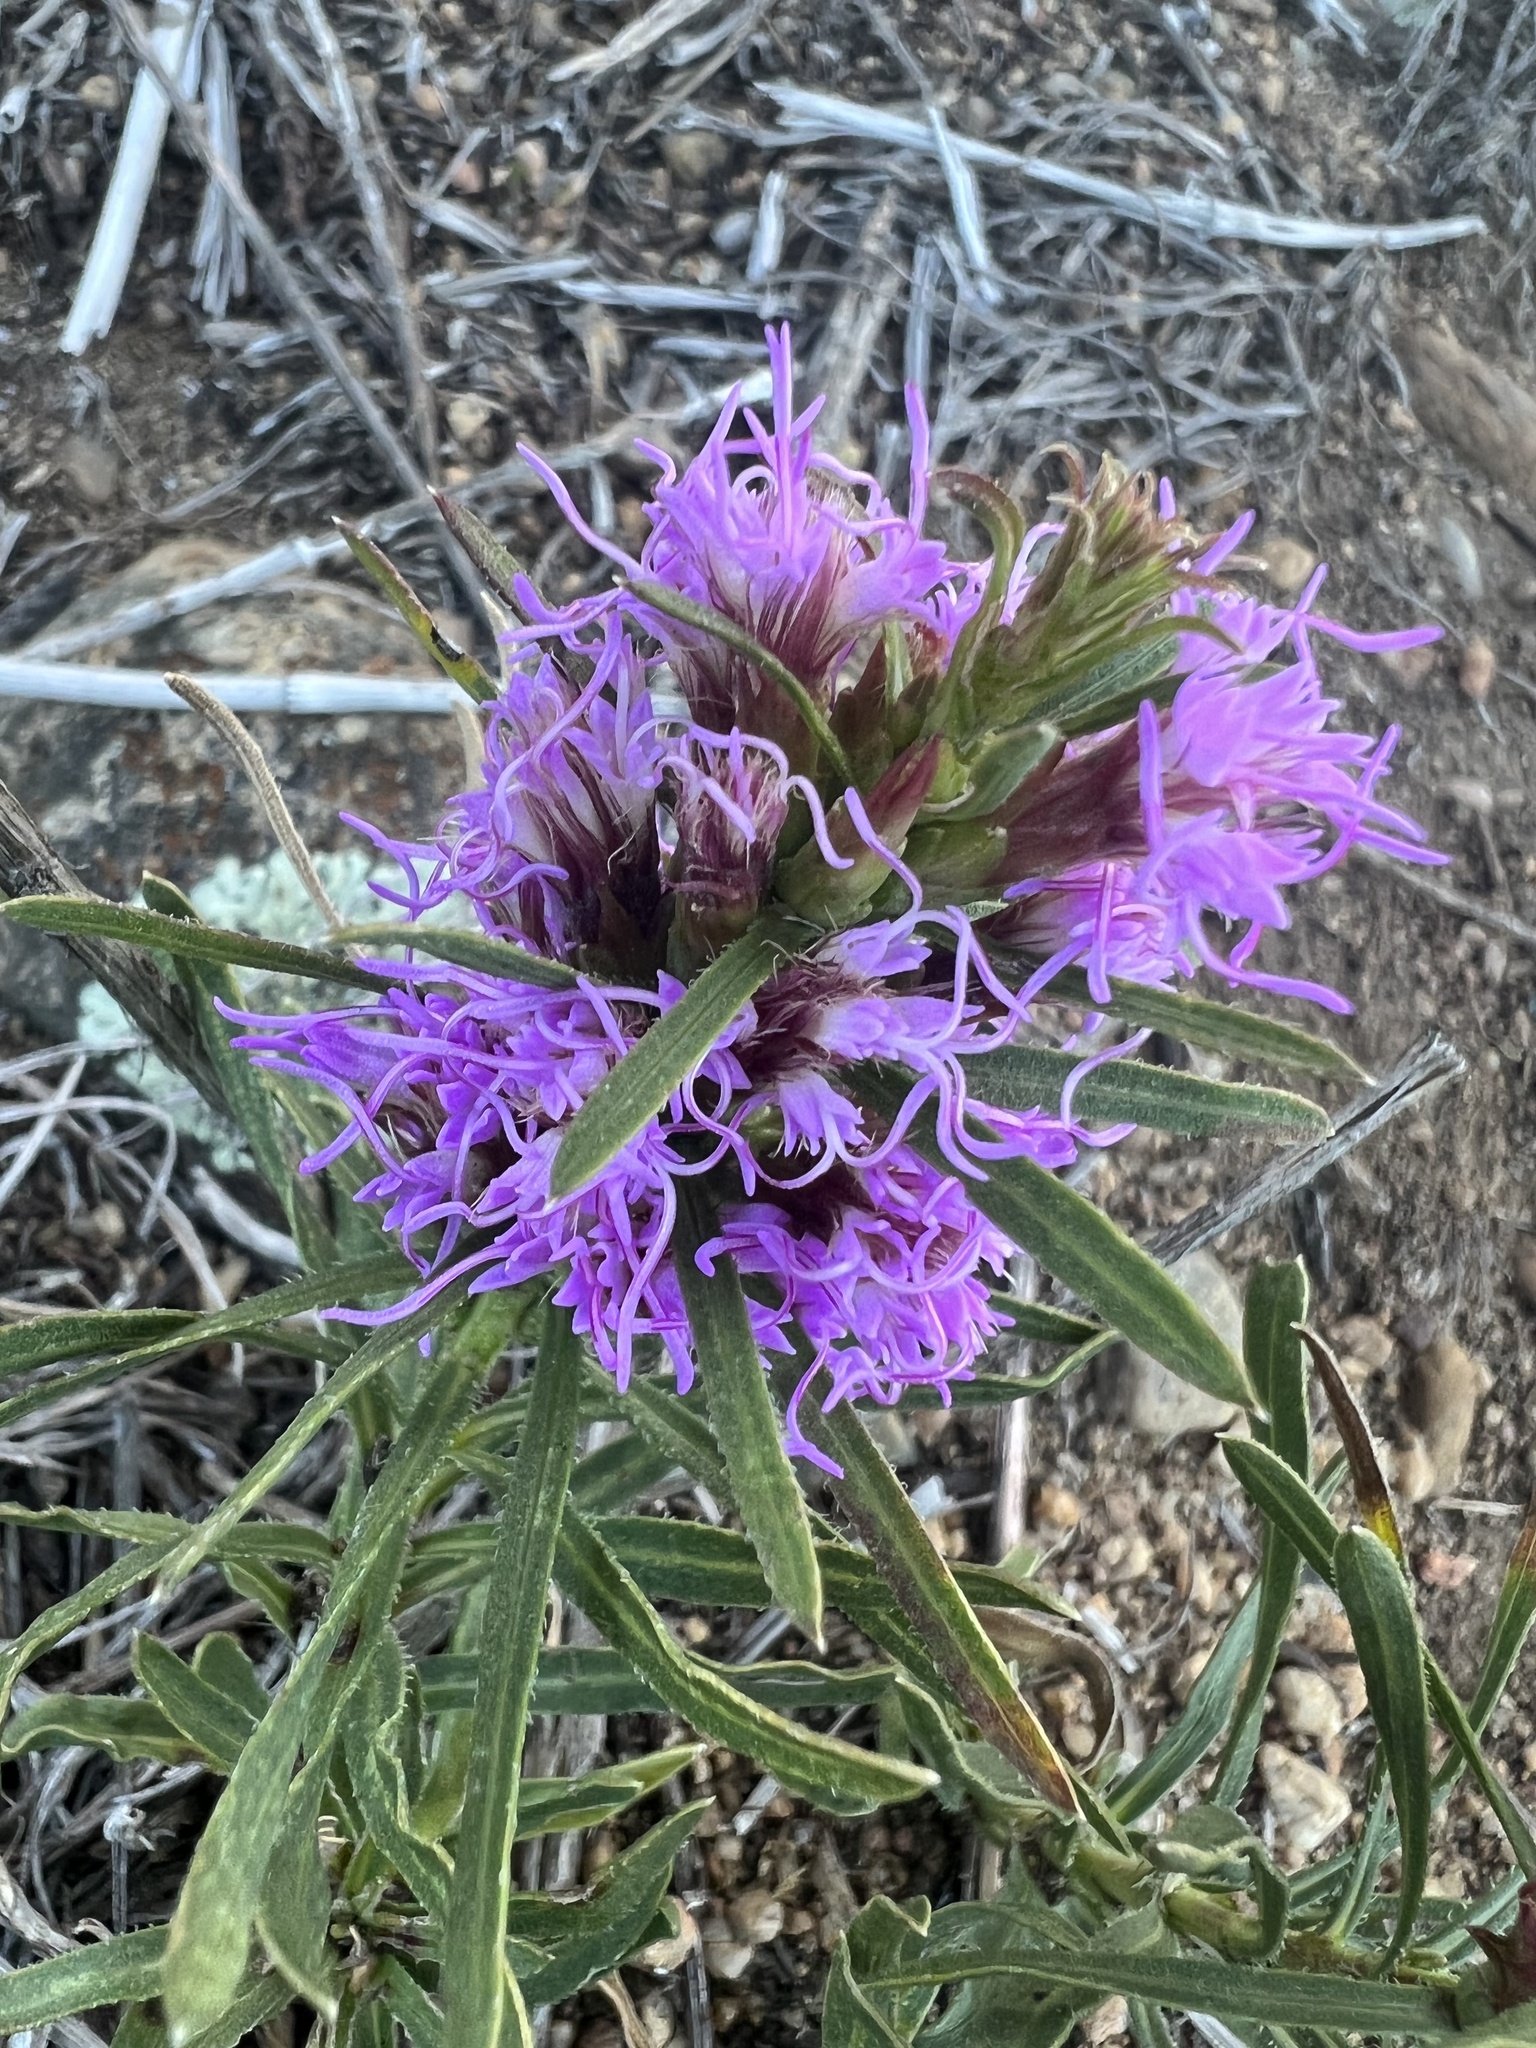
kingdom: Plantae
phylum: Tracheophyta
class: Magnoliopsida
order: Asterales
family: Asteraceae
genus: Liatris
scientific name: Liatris punctata
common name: Dotted gayfeather
